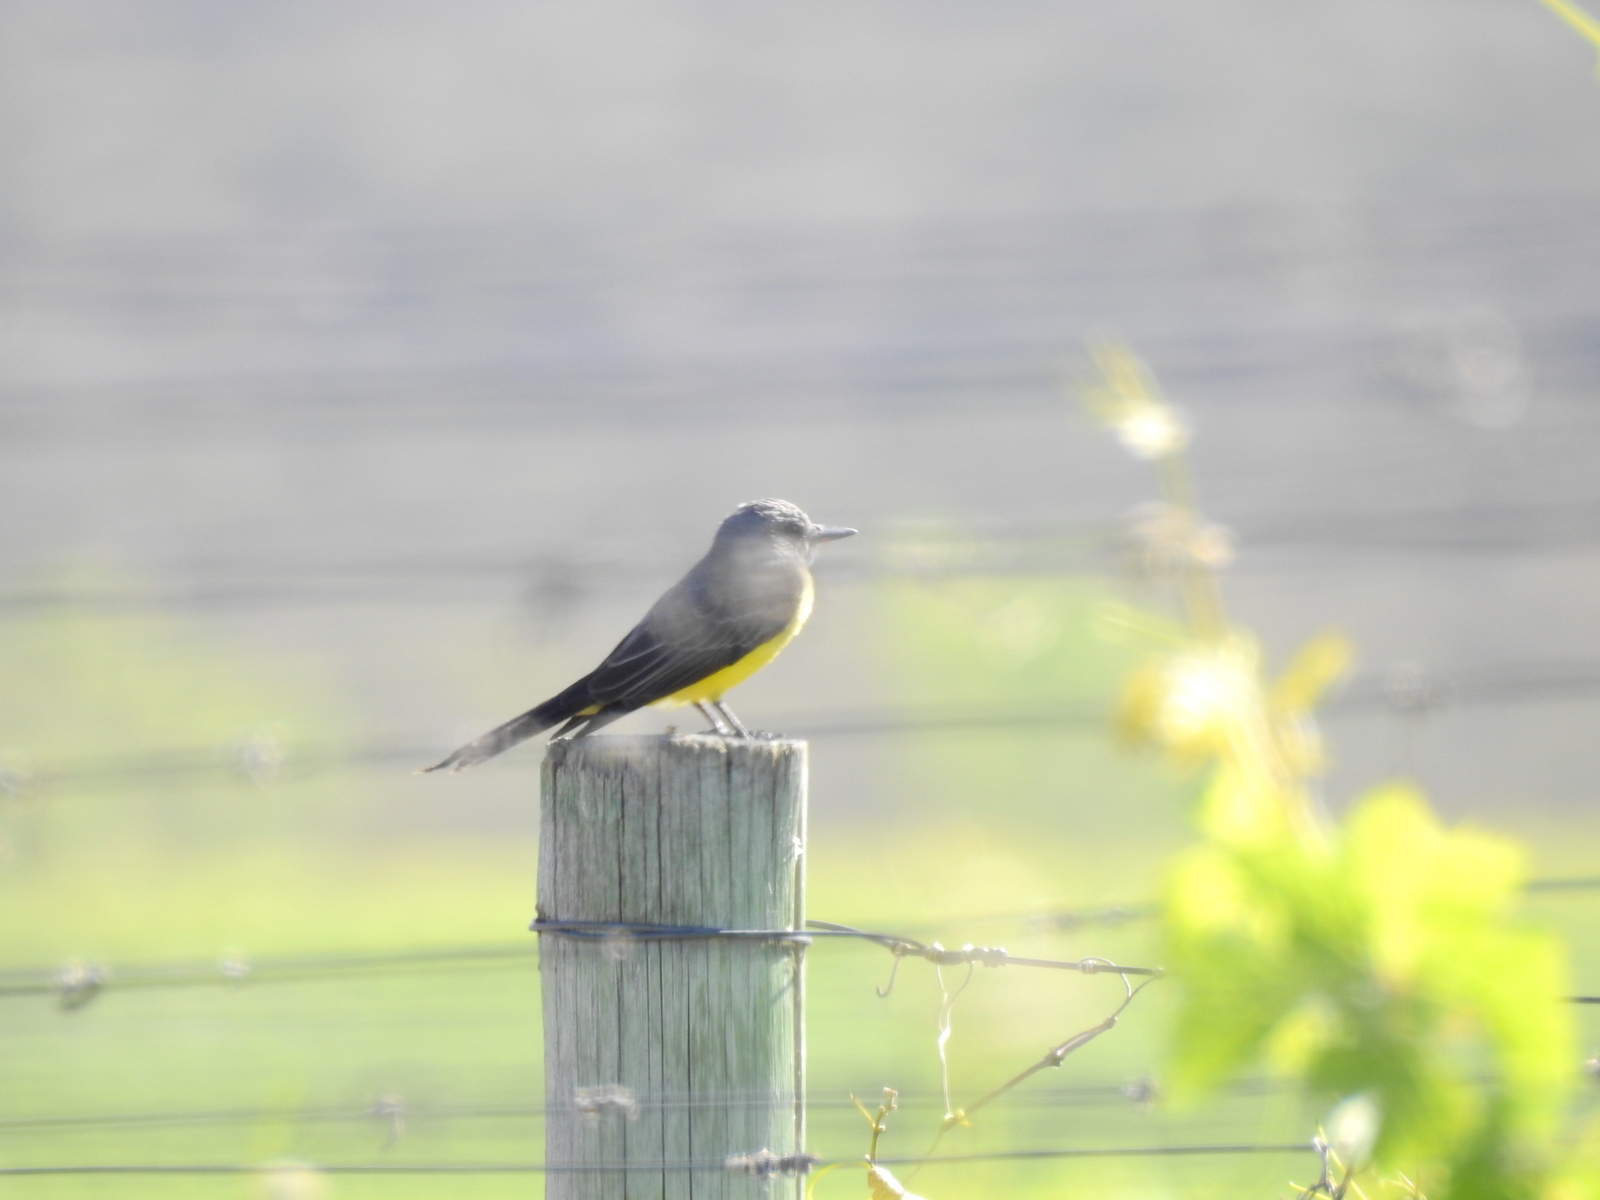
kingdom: Animalia
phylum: Chordata
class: Aves
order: Passeriformes
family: Tyrannidae
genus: Tyrannus
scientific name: Tyrannus melancholicus
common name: Tropical kingbird
